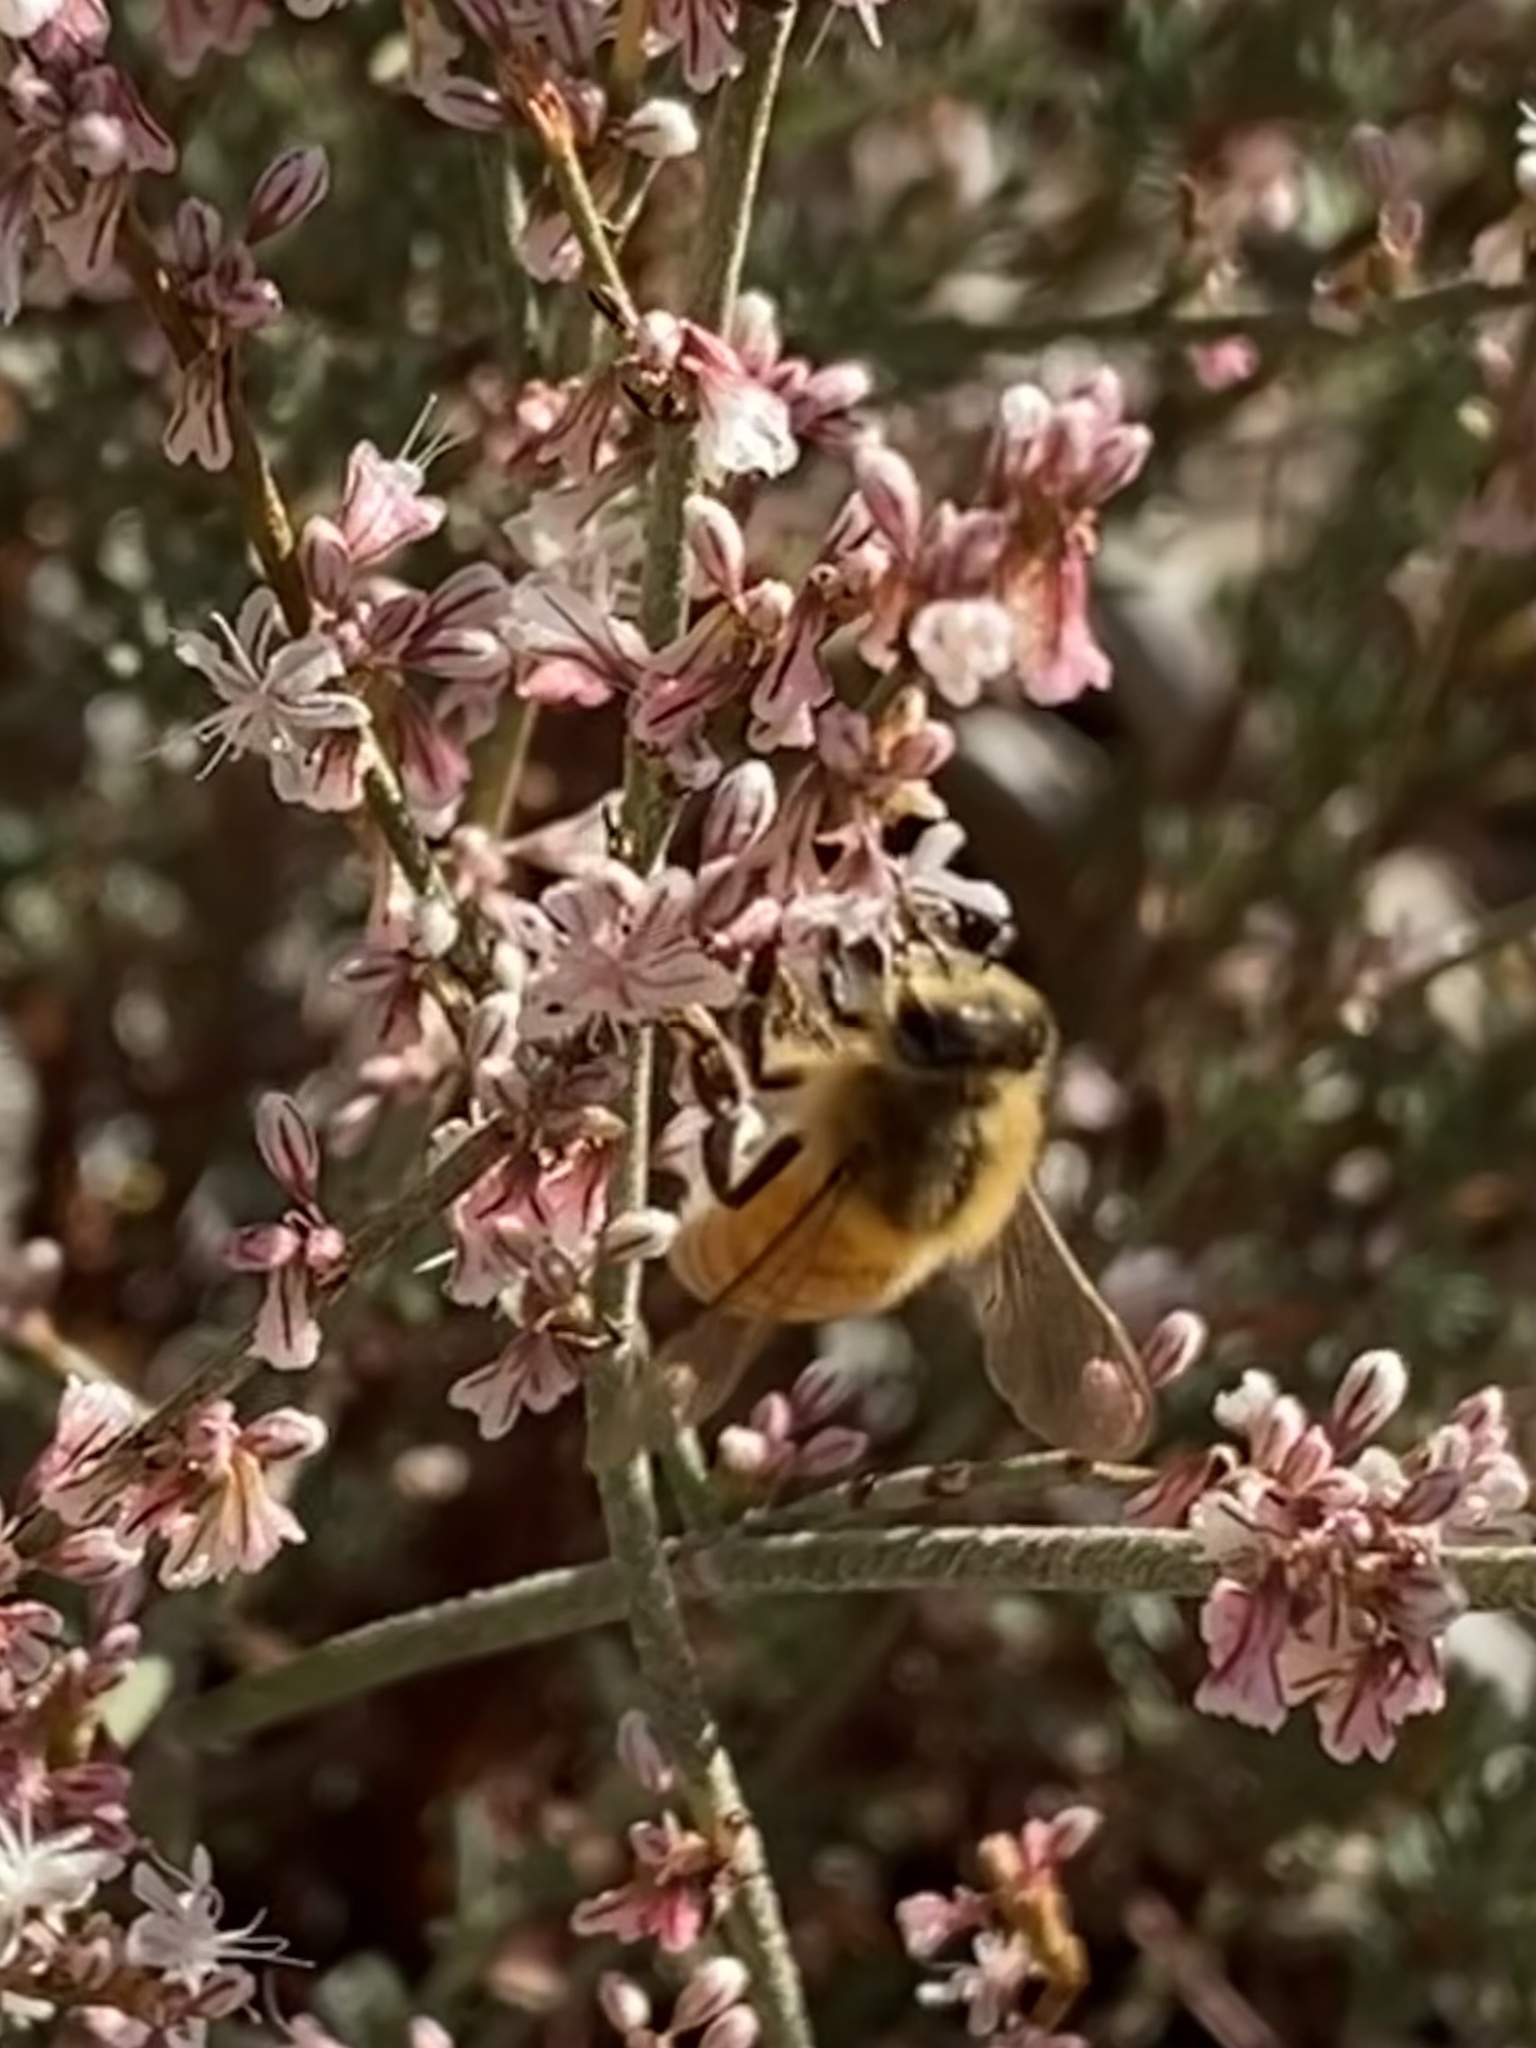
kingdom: Animalia
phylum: Arthropoda
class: Insecta
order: Hymenoptera
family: Apidae
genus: Apis
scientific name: Apis mellifera
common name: Honey bee
